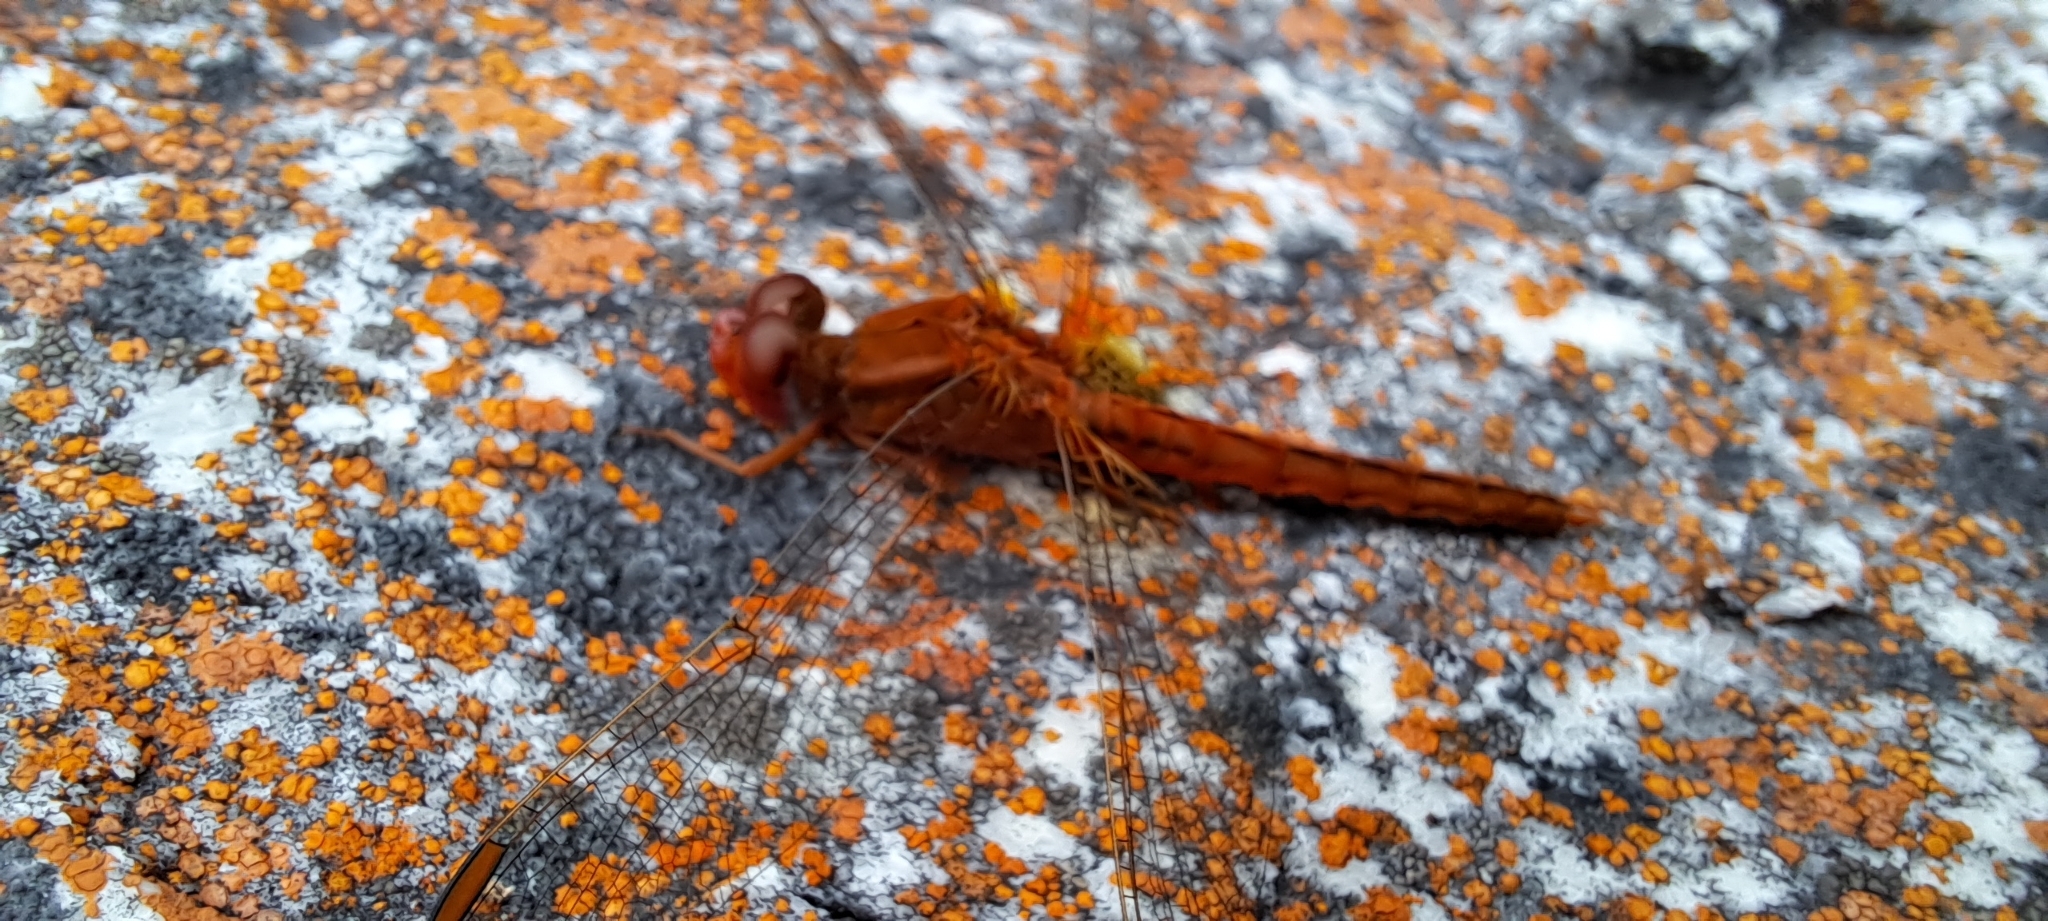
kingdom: Animalia
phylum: Arthropoda
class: Insecta
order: Odonata
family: Libellulidae
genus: Crocothemis
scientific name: Crocothemis sanguinolenta
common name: Little scarlet
